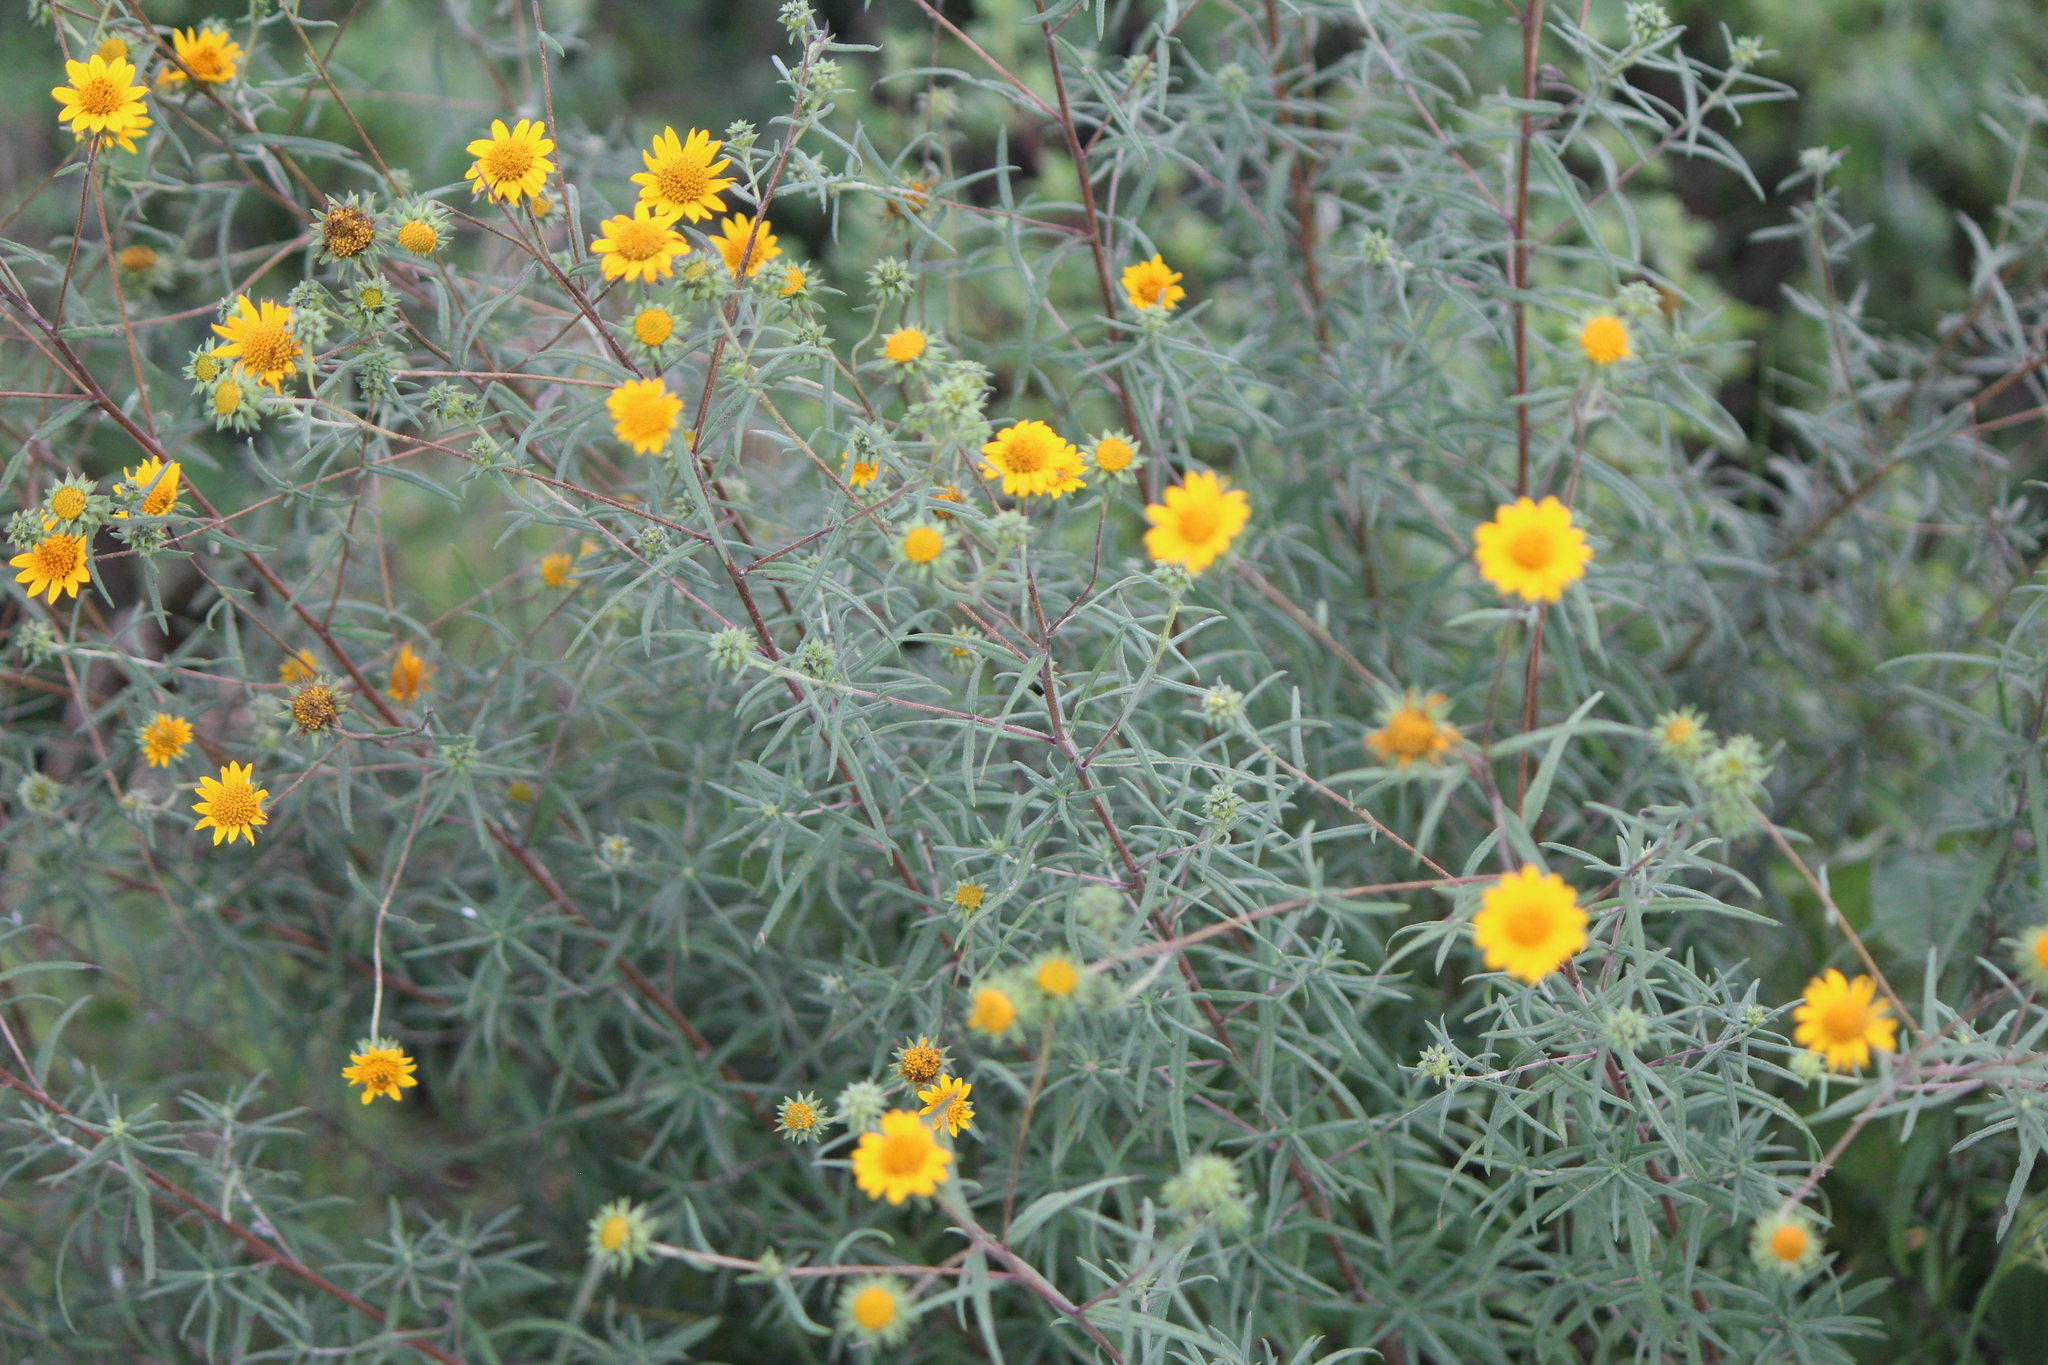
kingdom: Plantae
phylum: Tracheophyta
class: Magnoliopsida
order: Asterales
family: Asteraceae
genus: Aldama
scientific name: Aldama linearis
